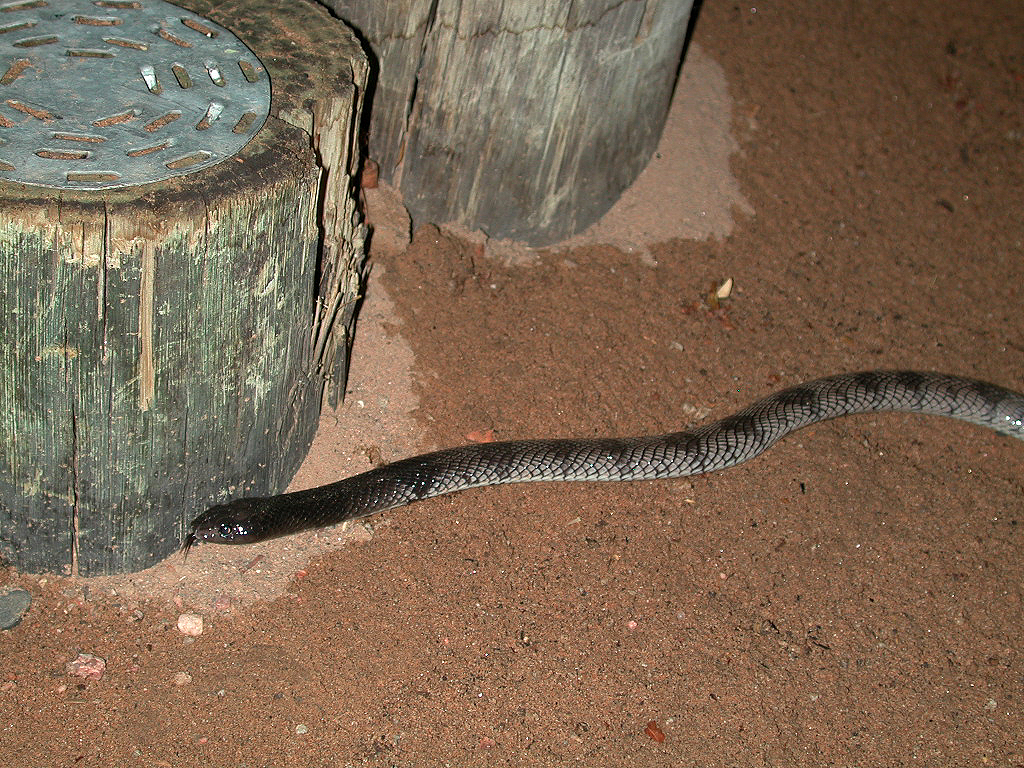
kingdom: Animalia
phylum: Chordata
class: Squamata
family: Elapidae
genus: Aspidelaps
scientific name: Aspidelaps lubricus
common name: Coral shield cobra
